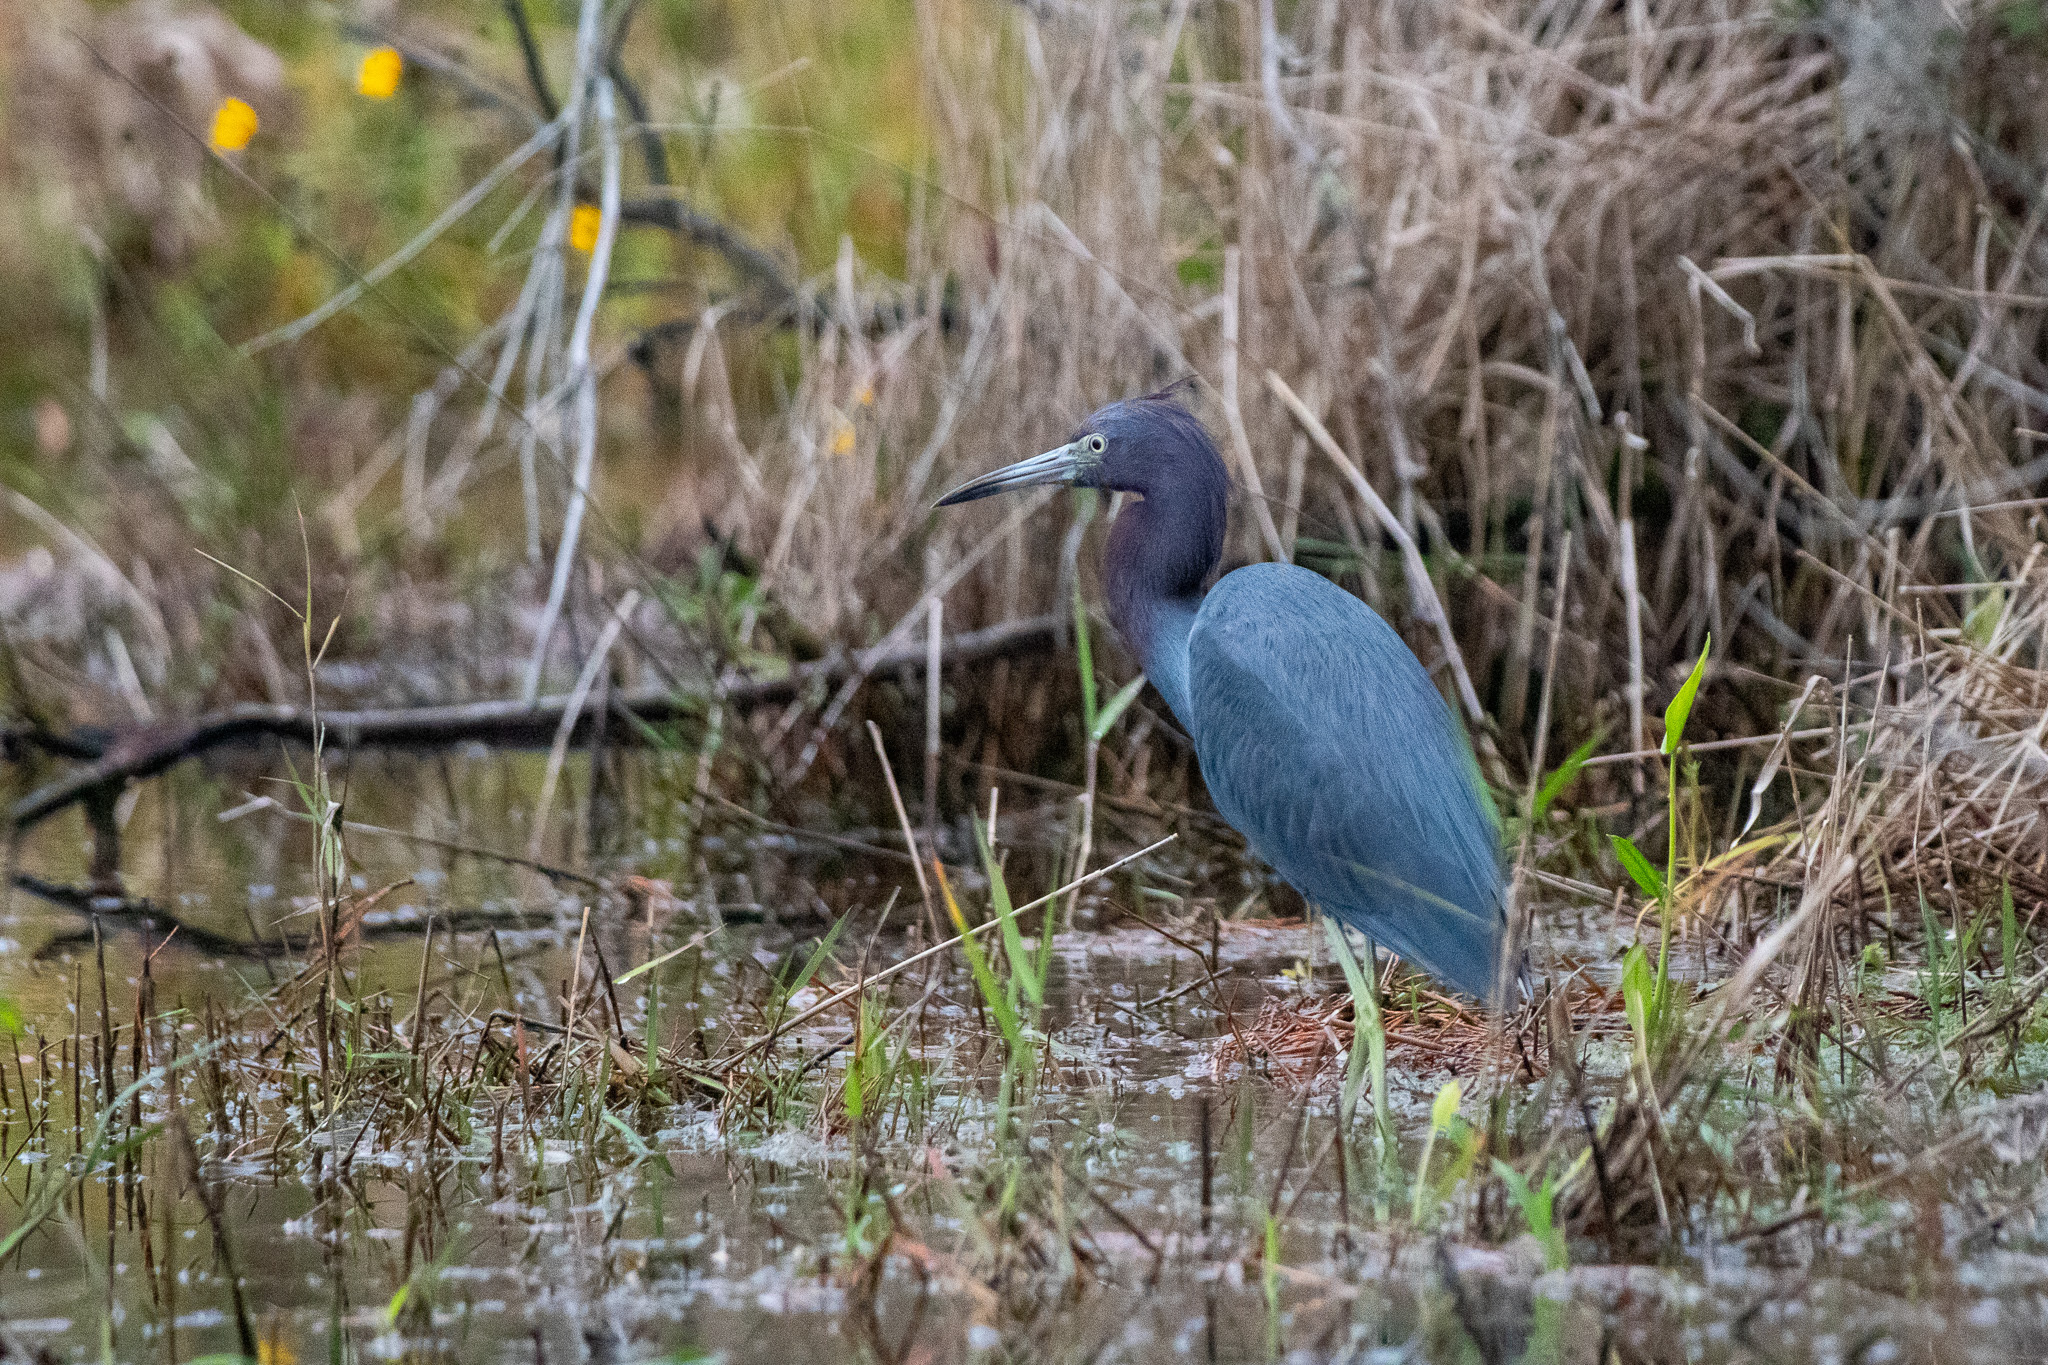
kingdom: Animalia
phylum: Chordata
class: Aves
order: Pelecaniformes
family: Ardeidae
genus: Egretta
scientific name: Egretta caerulea
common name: Little blue heron
